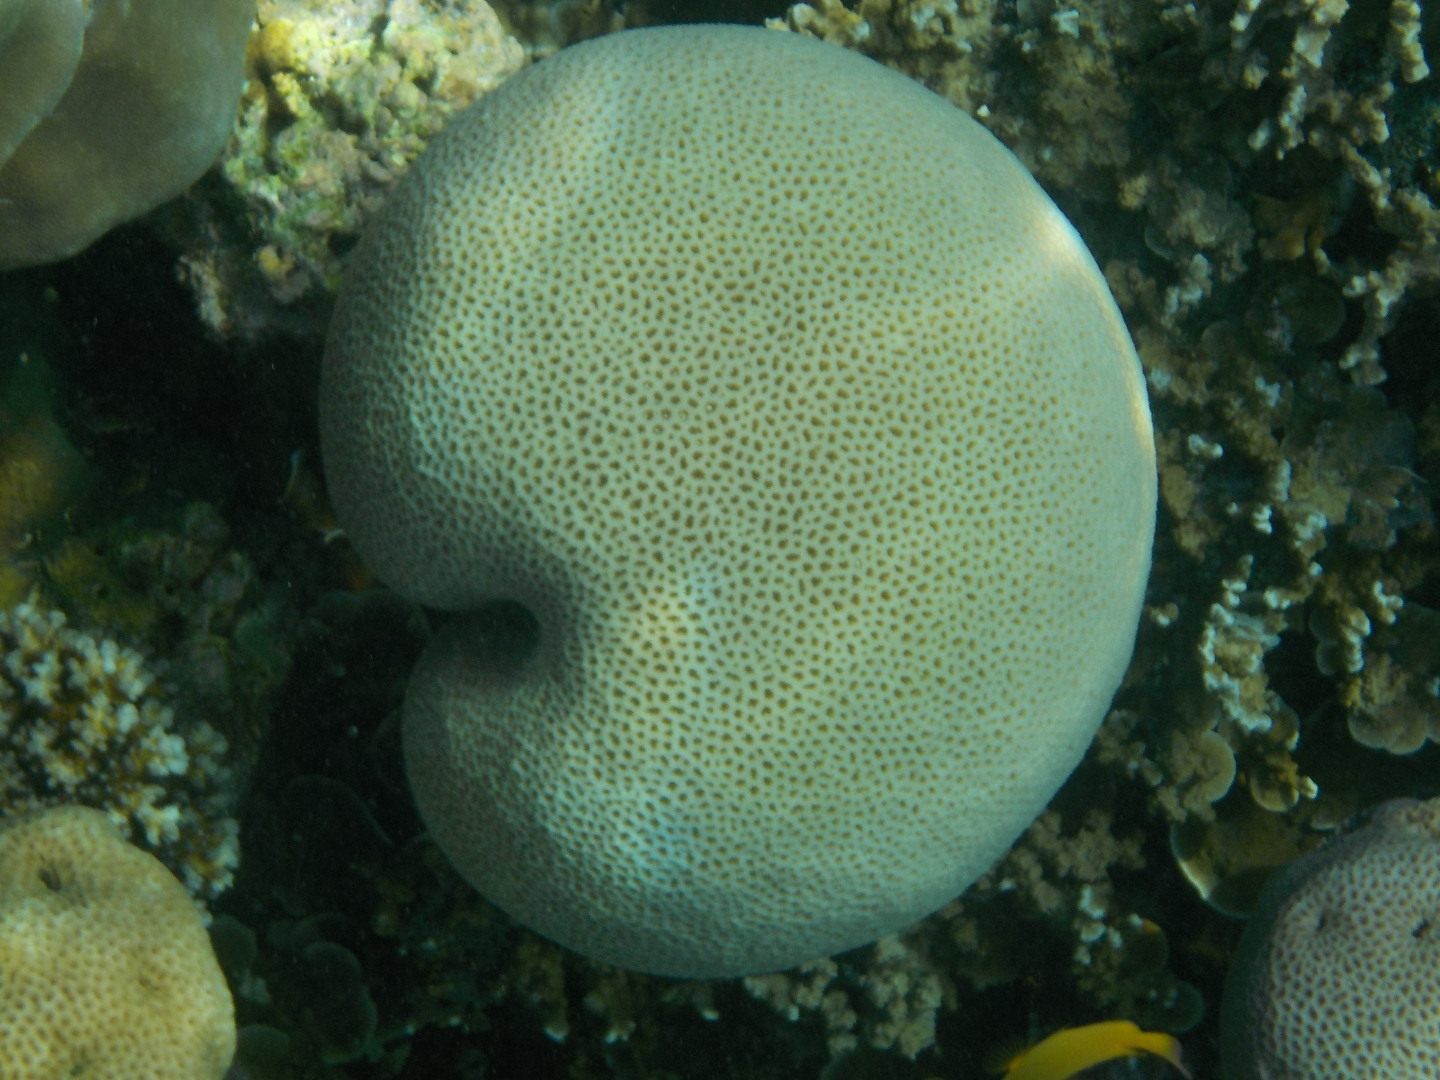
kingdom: Animalia
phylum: Cnidaria
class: Anthozoa
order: Scleractinia
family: Merulinidae
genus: Goniastrea
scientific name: Goniastrea
